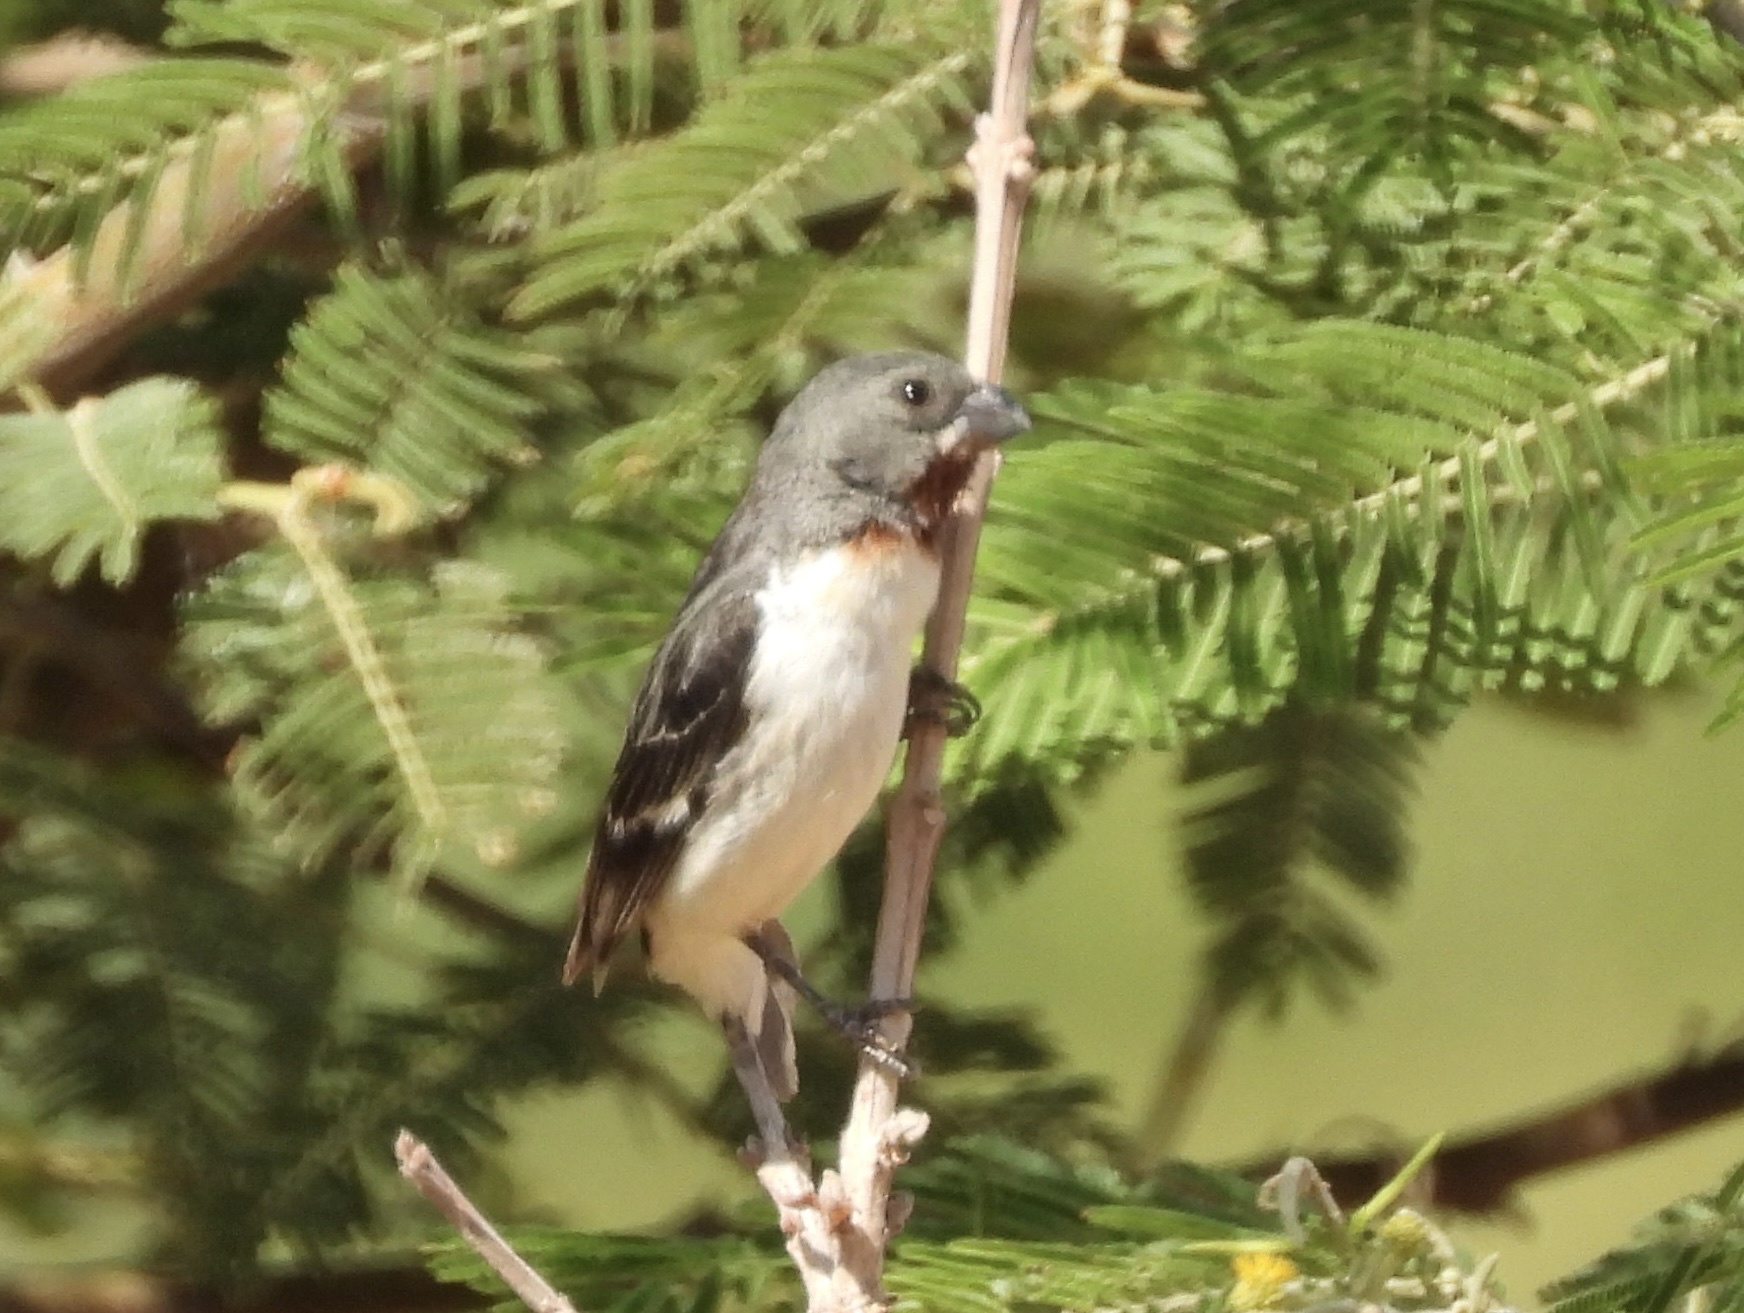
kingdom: Animalia
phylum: Chordata
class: Aves
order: Passeriformes
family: Thraupidae
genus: Sporophila
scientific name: Sporophila telasco
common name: Chestnut-throated seedeater
